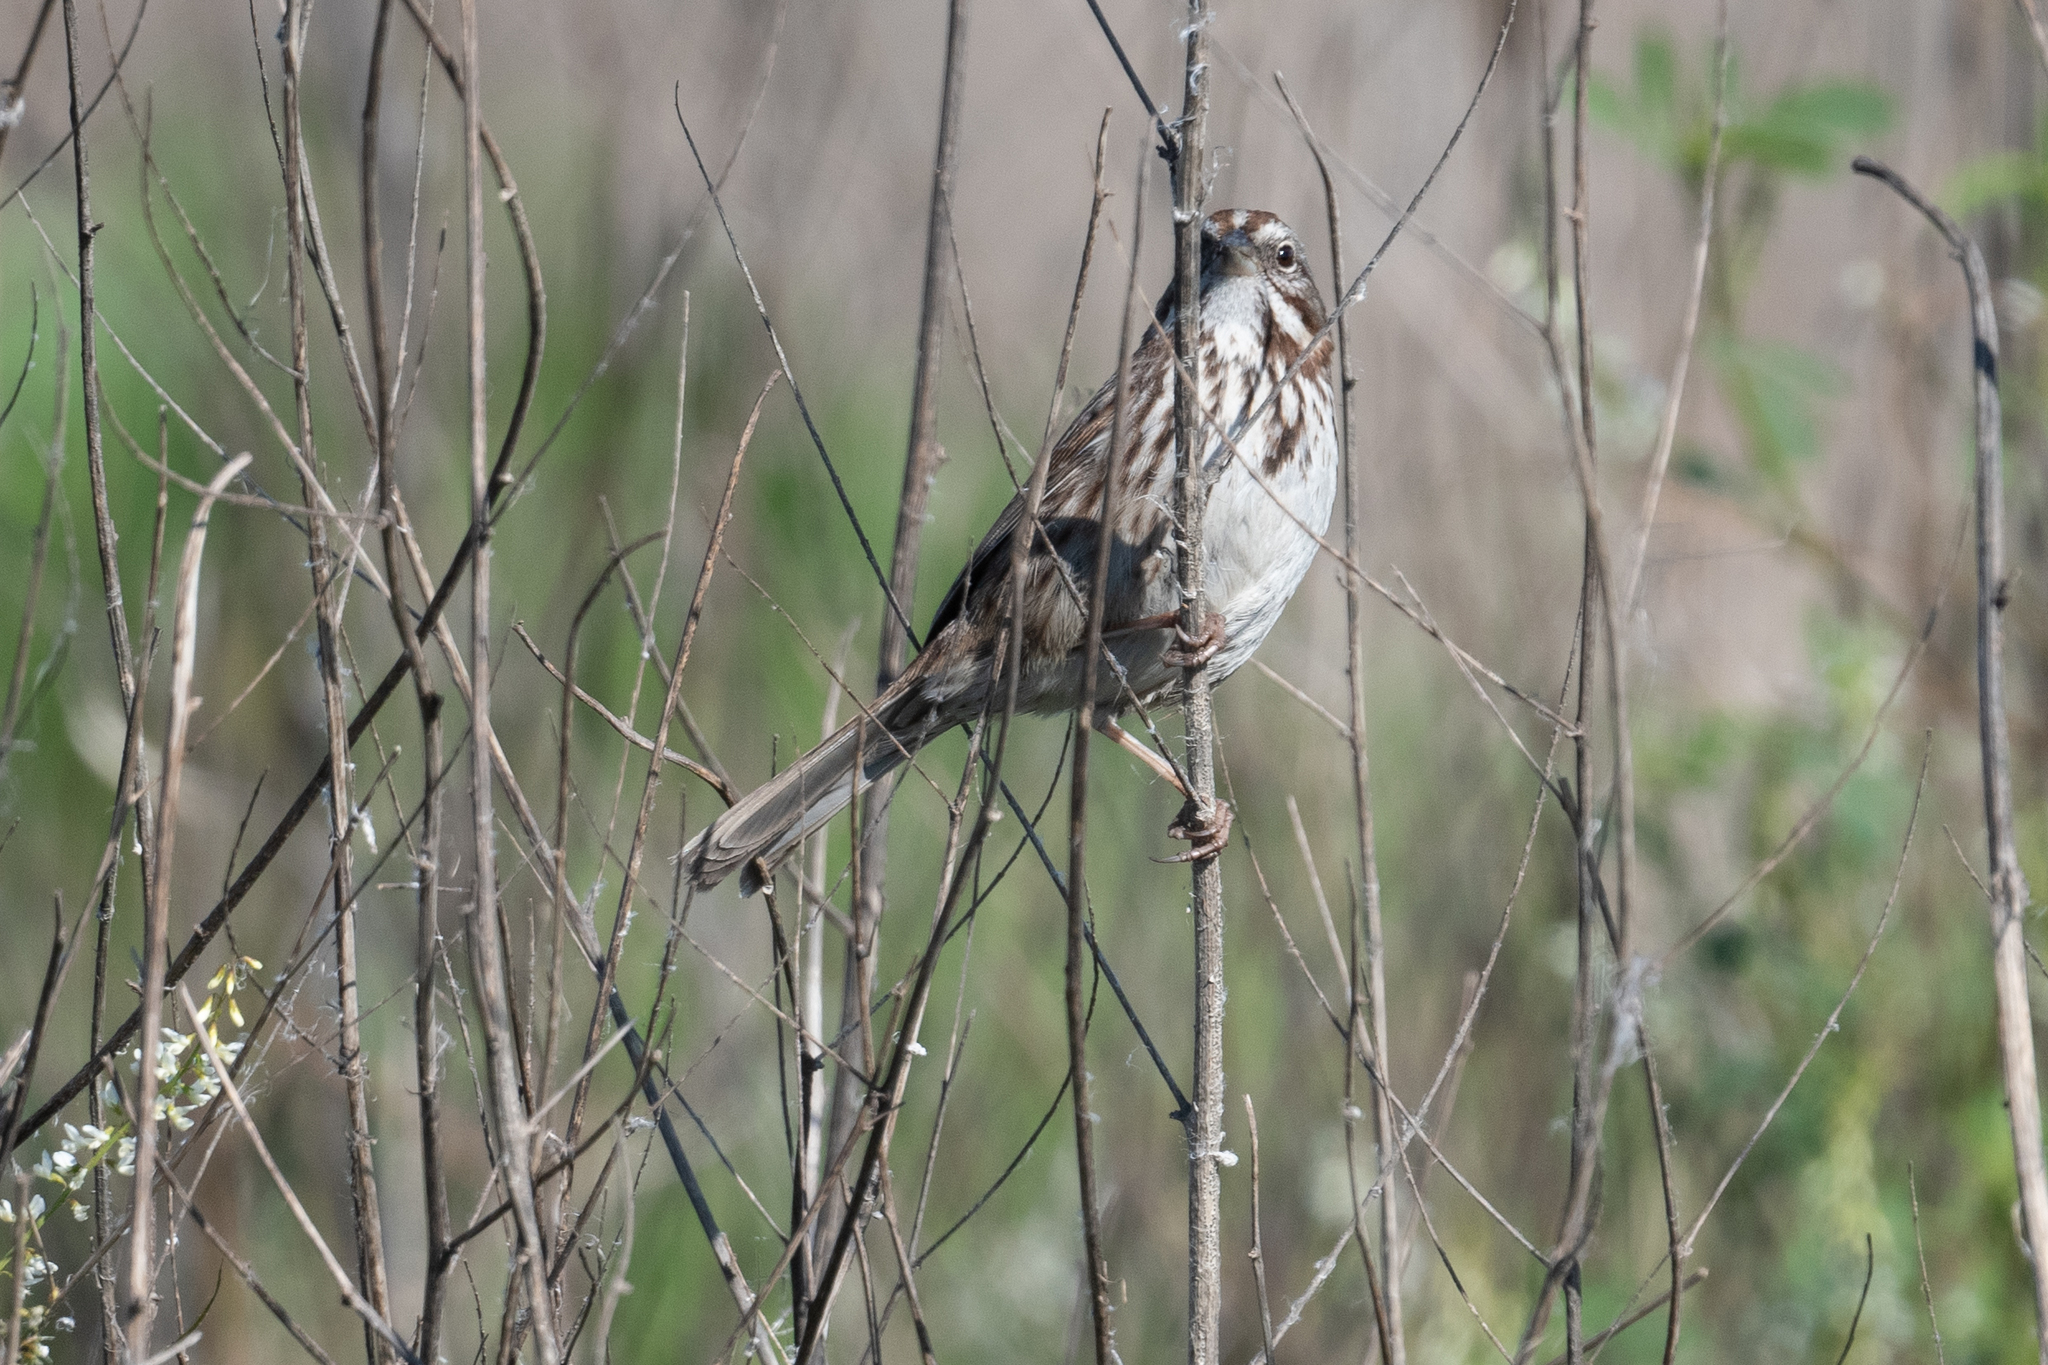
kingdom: Animalia
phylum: Chordata
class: Aves
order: Passeriformes
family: Passerellidae
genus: Melospiza
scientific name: Melospiza melodia
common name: Song sparrow
